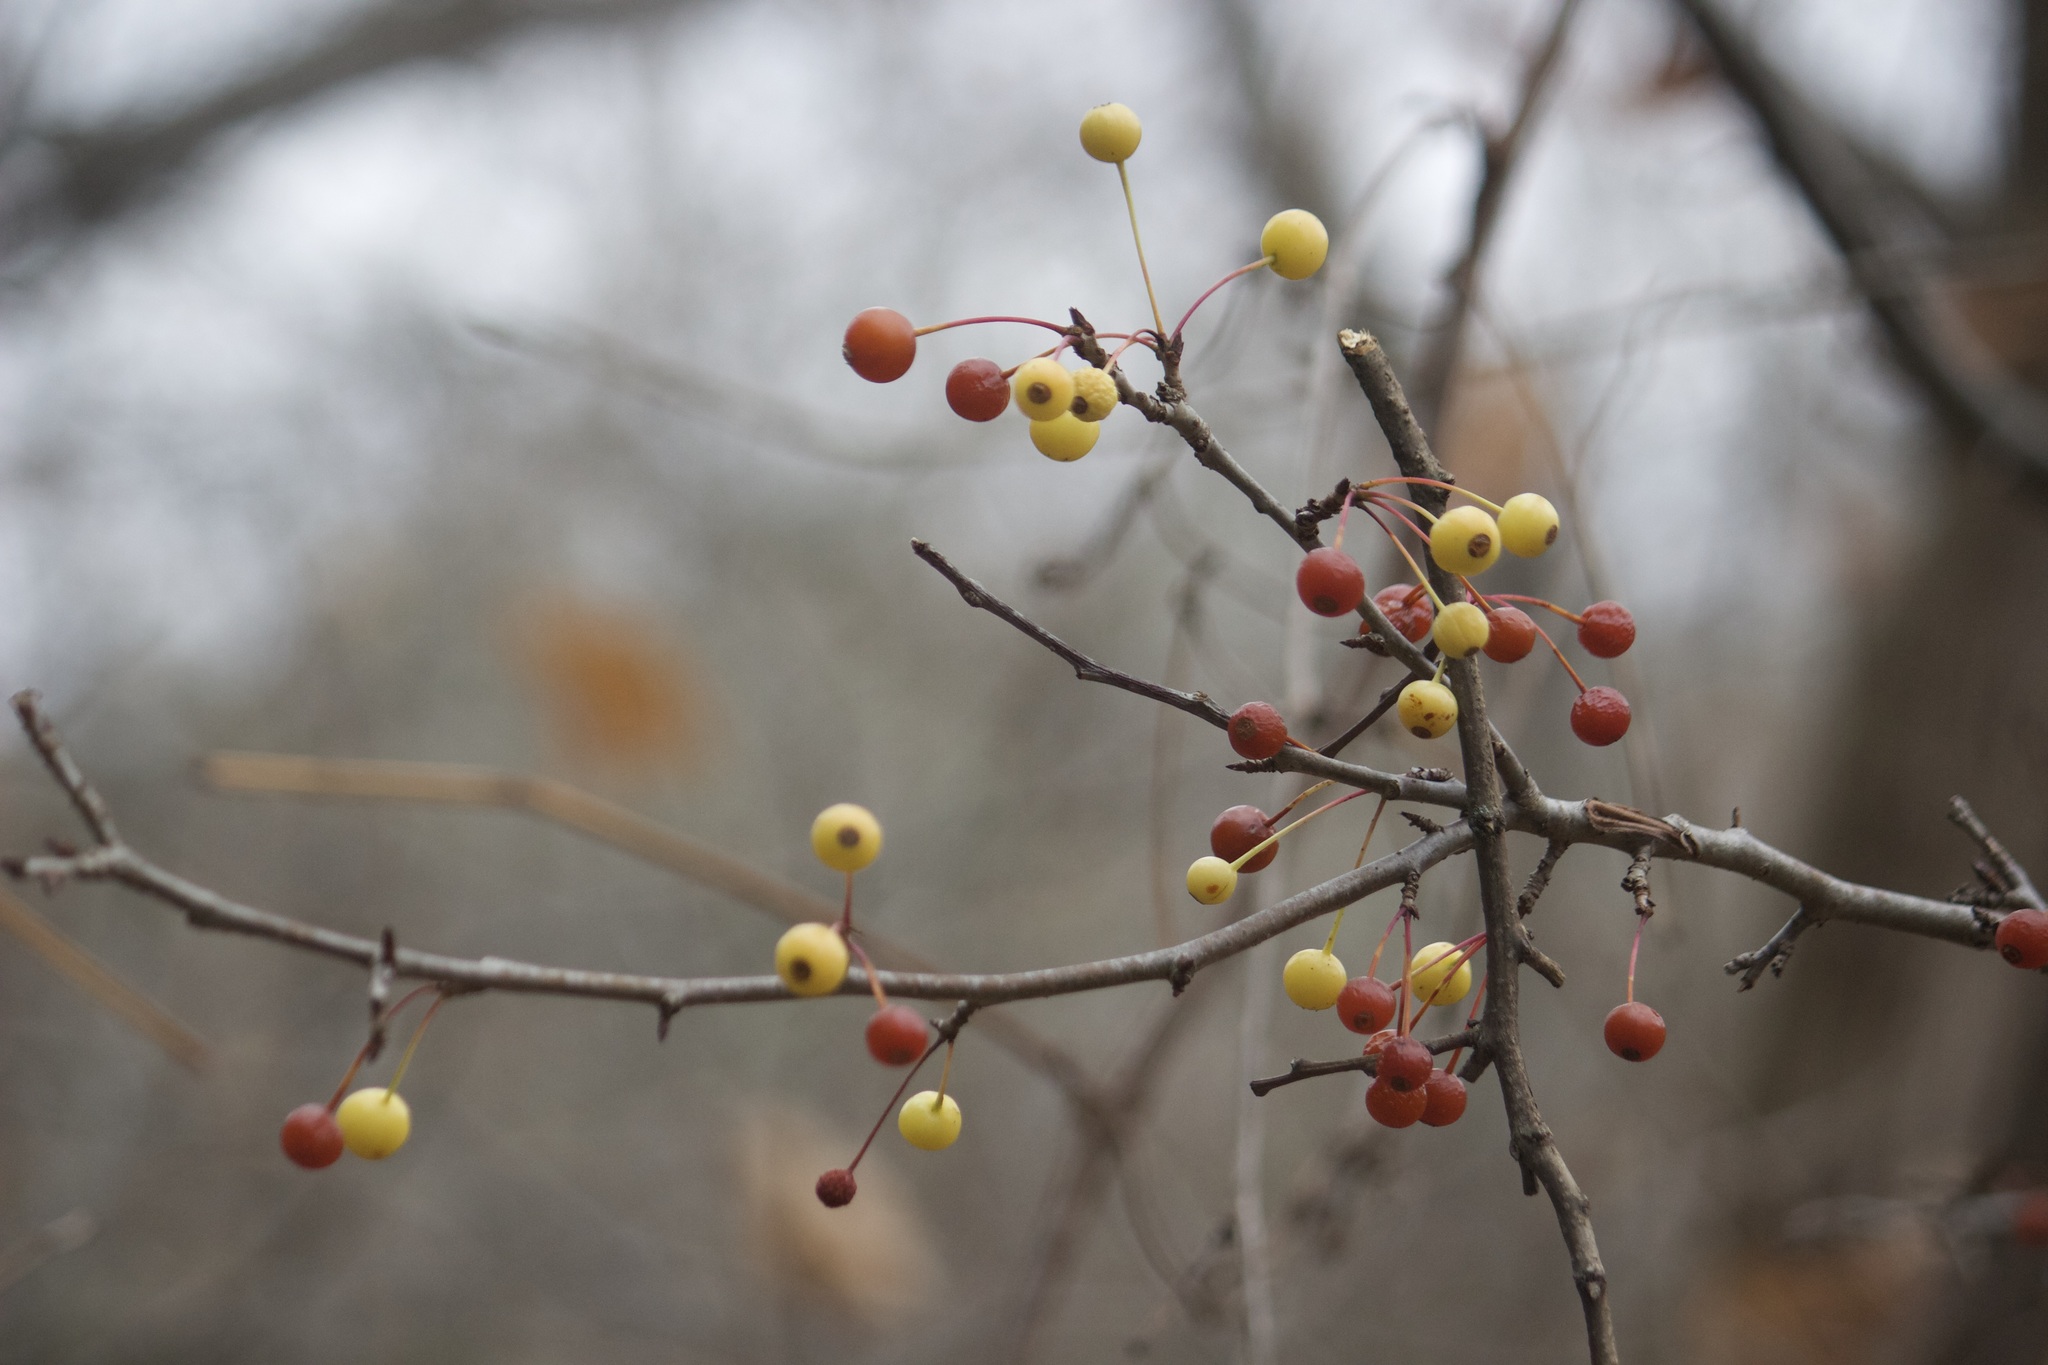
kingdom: Plantae
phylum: Tracheophyta
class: Magnoliopsida
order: Rosales
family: Rosaceae
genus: Malus
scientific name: Malus baccata
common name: Siberian crab
